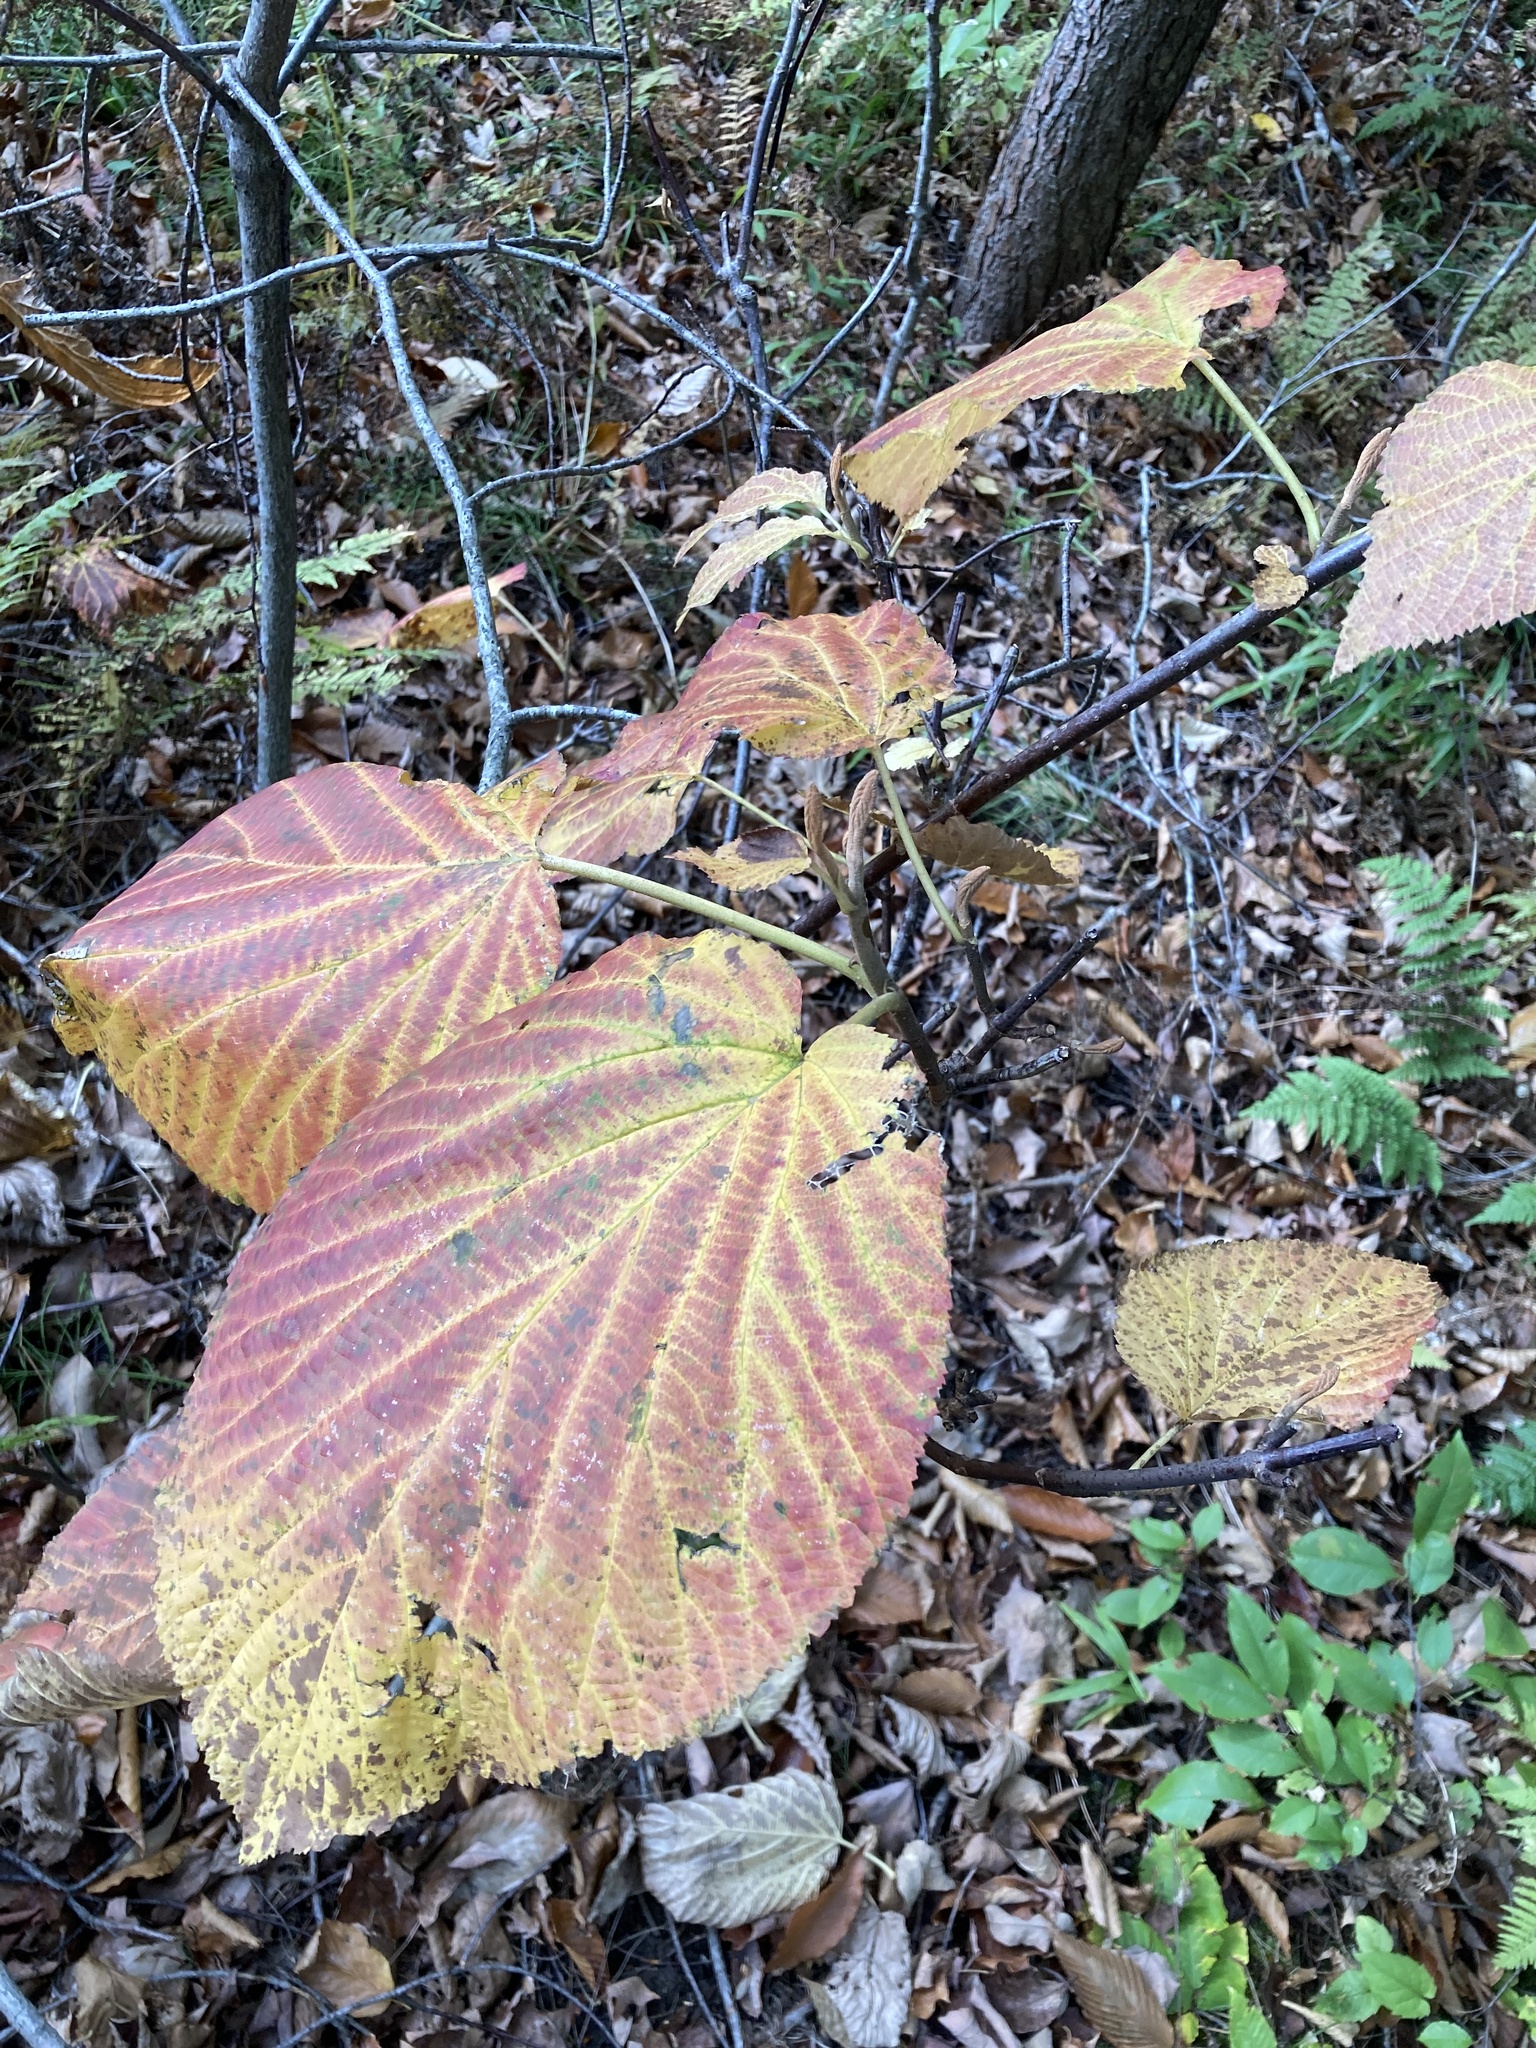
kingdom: Plantae
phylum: Tracheophyta
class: Magnoliopsida
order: Dipsacales
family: Viburnaceae
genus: Viburnum
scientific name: Viburnum lantanoides
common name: Hobblebush
